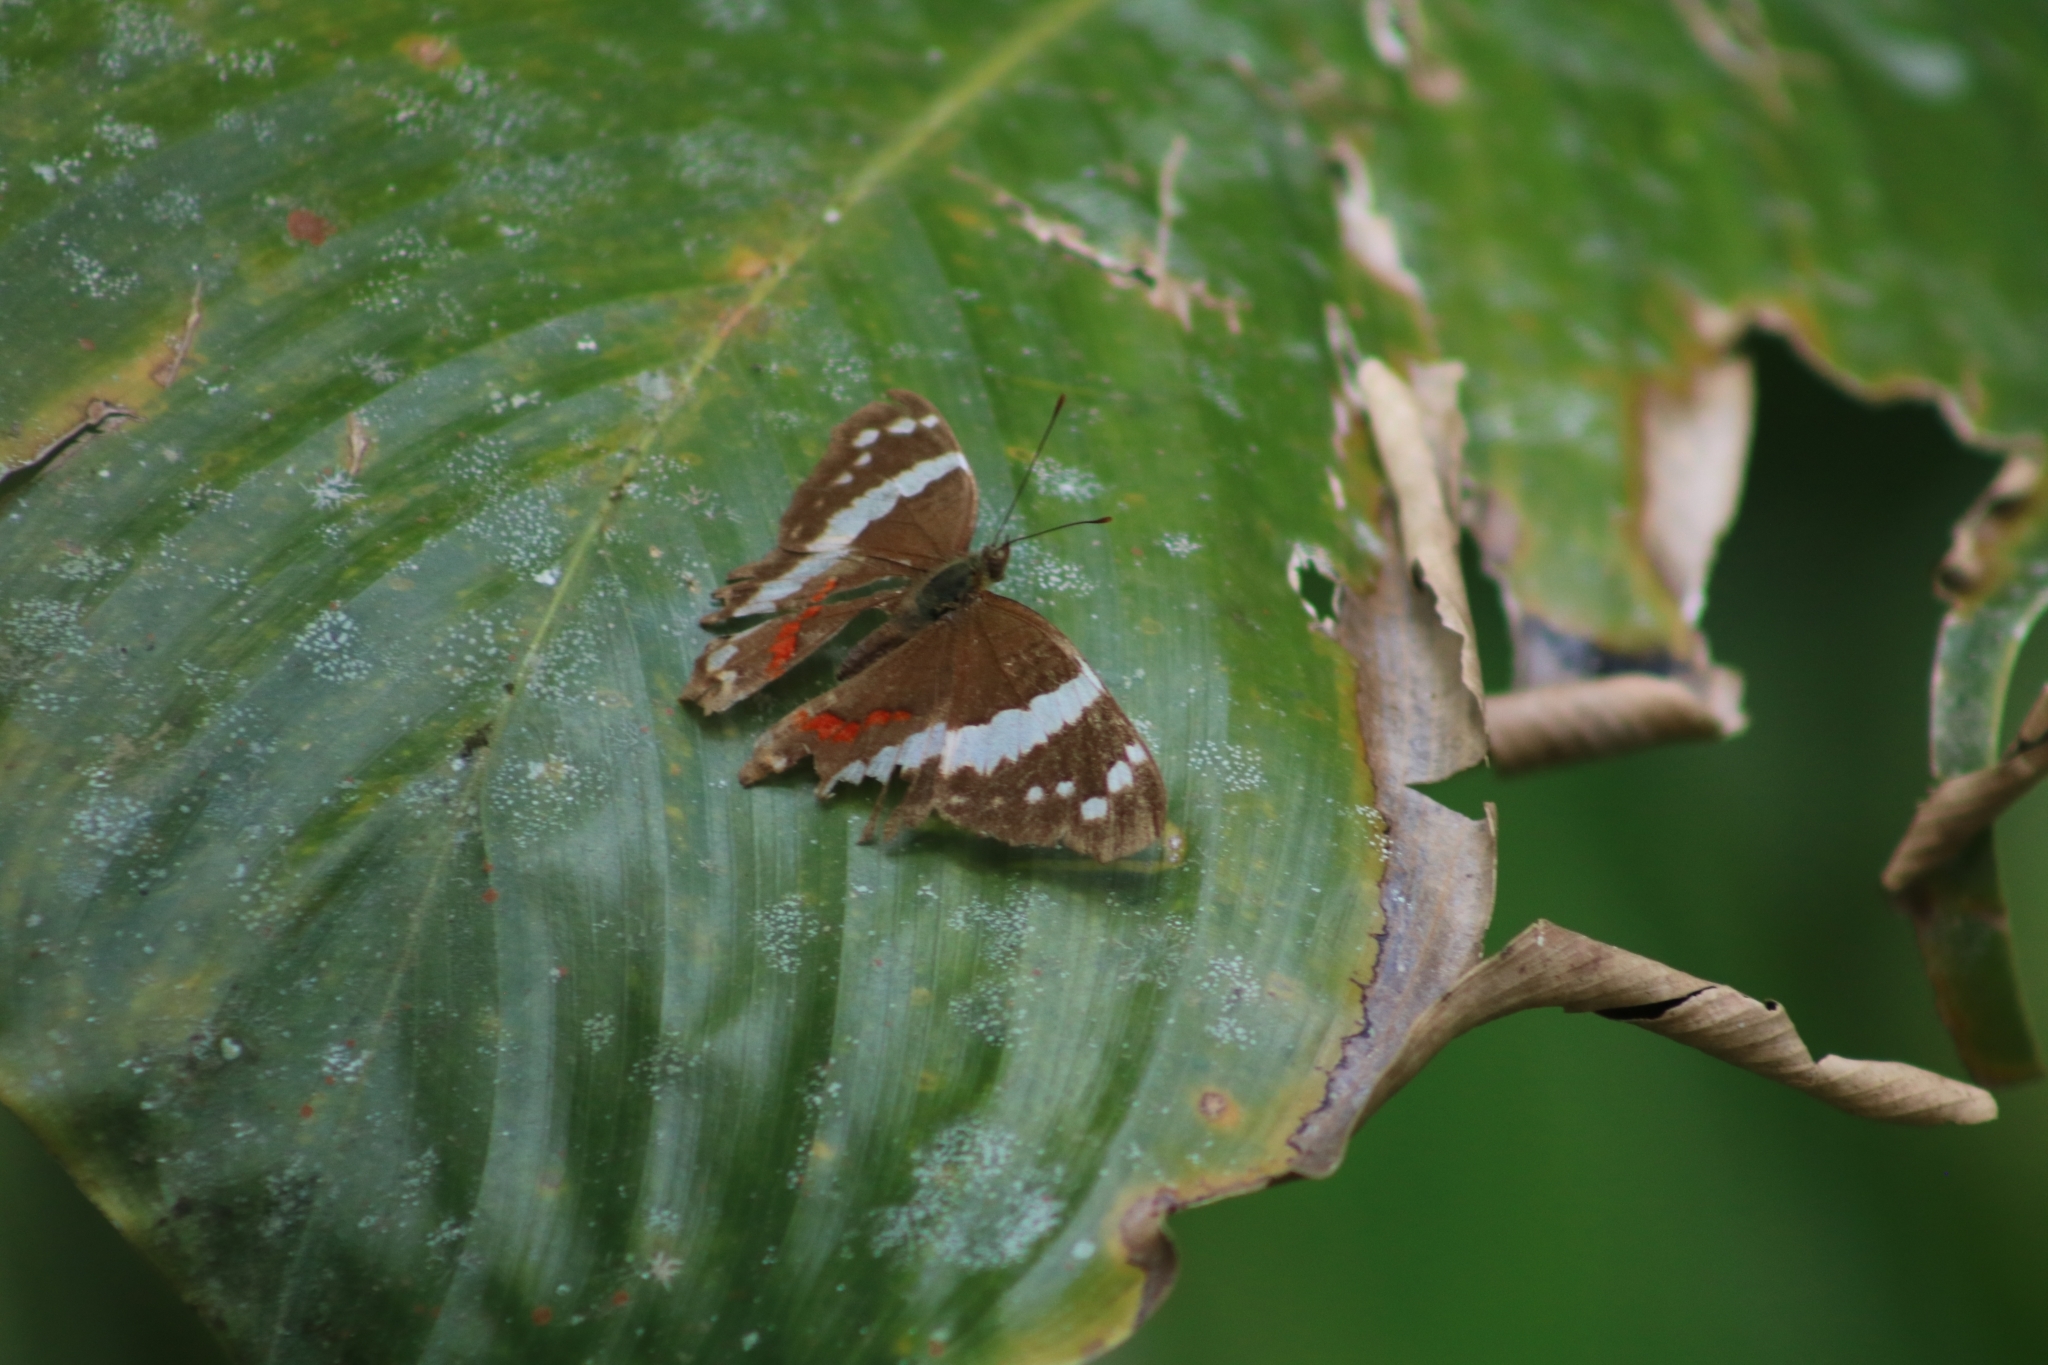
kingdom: Animalia
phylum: Arthropoda
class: Insecta
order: Lepidoptera
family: Nymphalidae
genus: Anartia
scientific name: Anartia fatima
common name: Banded peacock
